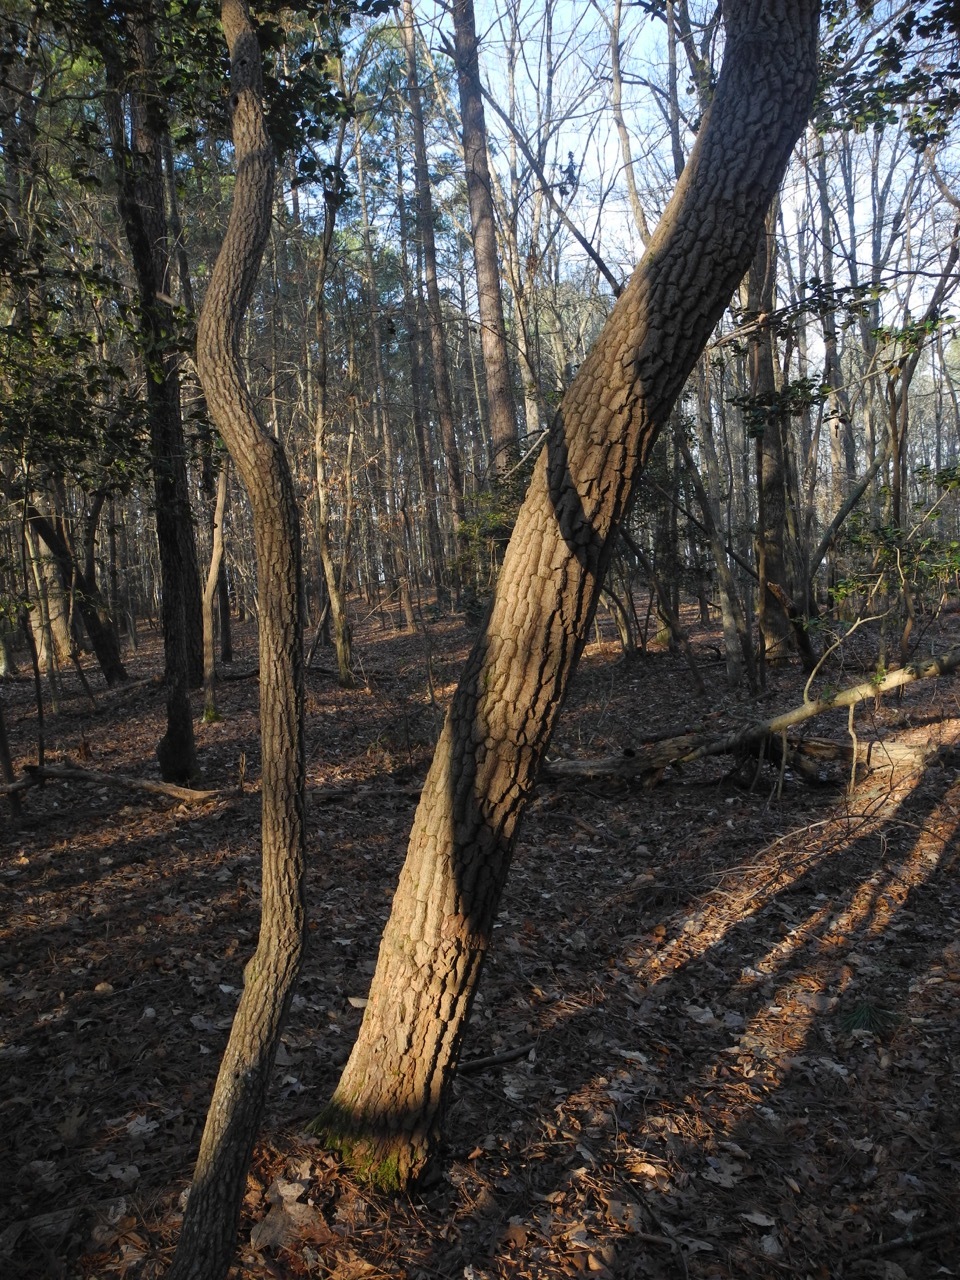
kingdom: Plantae
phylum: Tracheophyta
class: Magnoliopsida
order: Ericales
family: Ericaceae
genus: Oxydendrum
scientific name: Oxydendrum arboreum
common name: Sourwood
